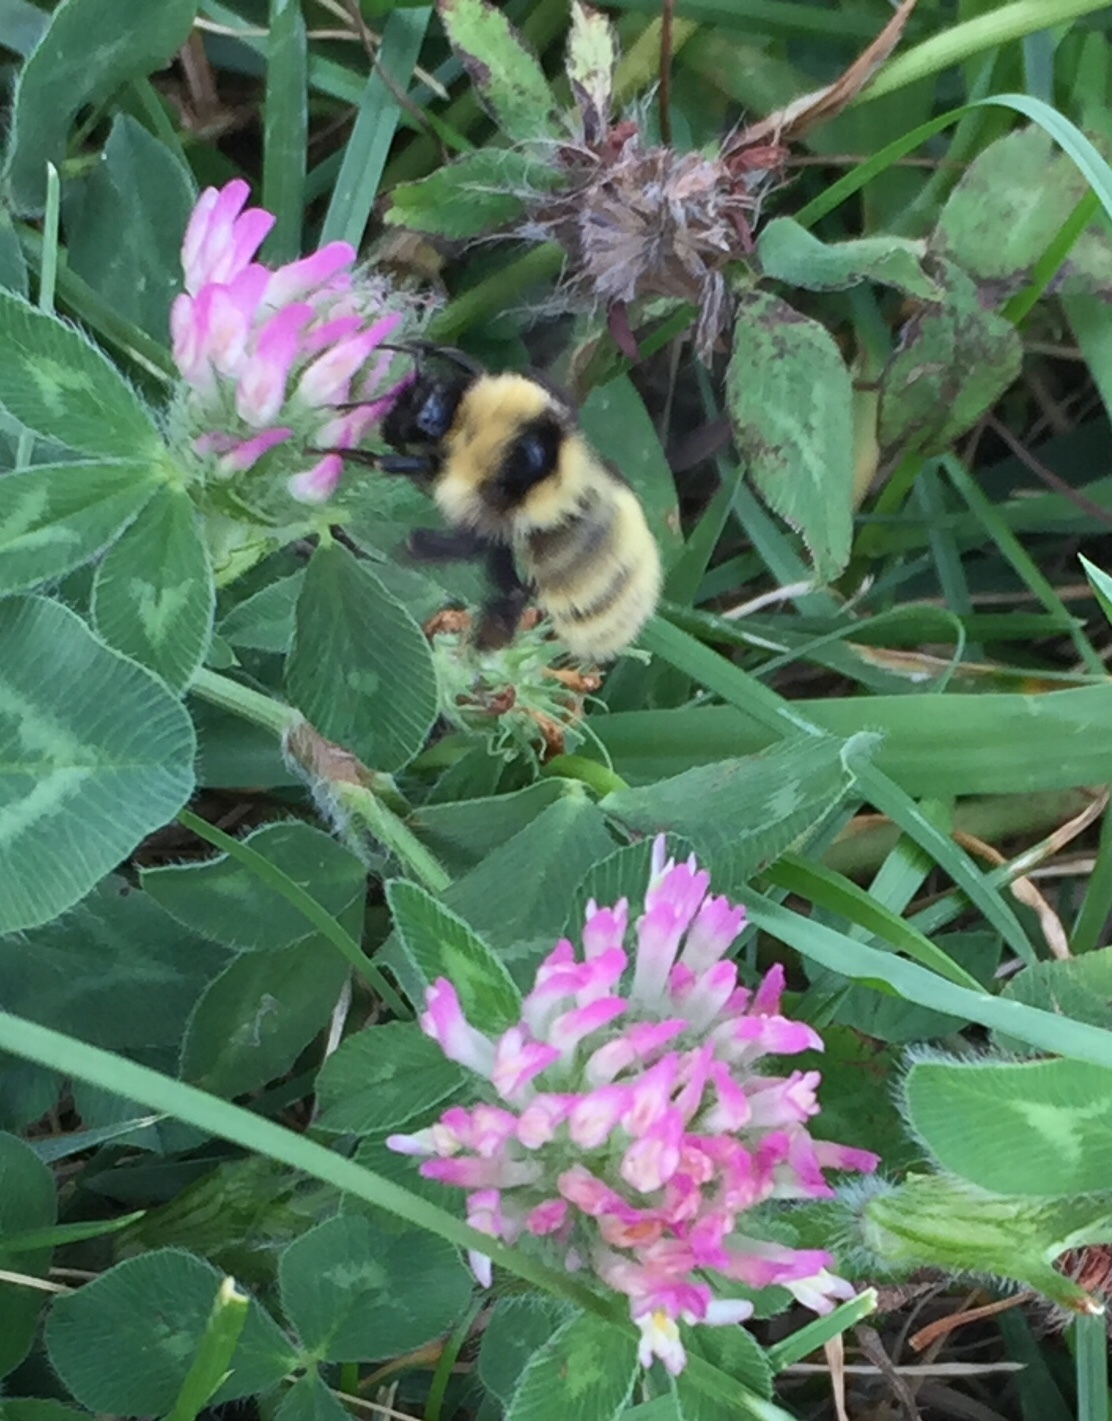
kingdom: Animalia
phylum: Arthropoda
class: Insecta
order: Hymenoptera
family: Apidae
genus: Bombus
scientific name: Bombus fervidus
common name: Yellow bumble bee
